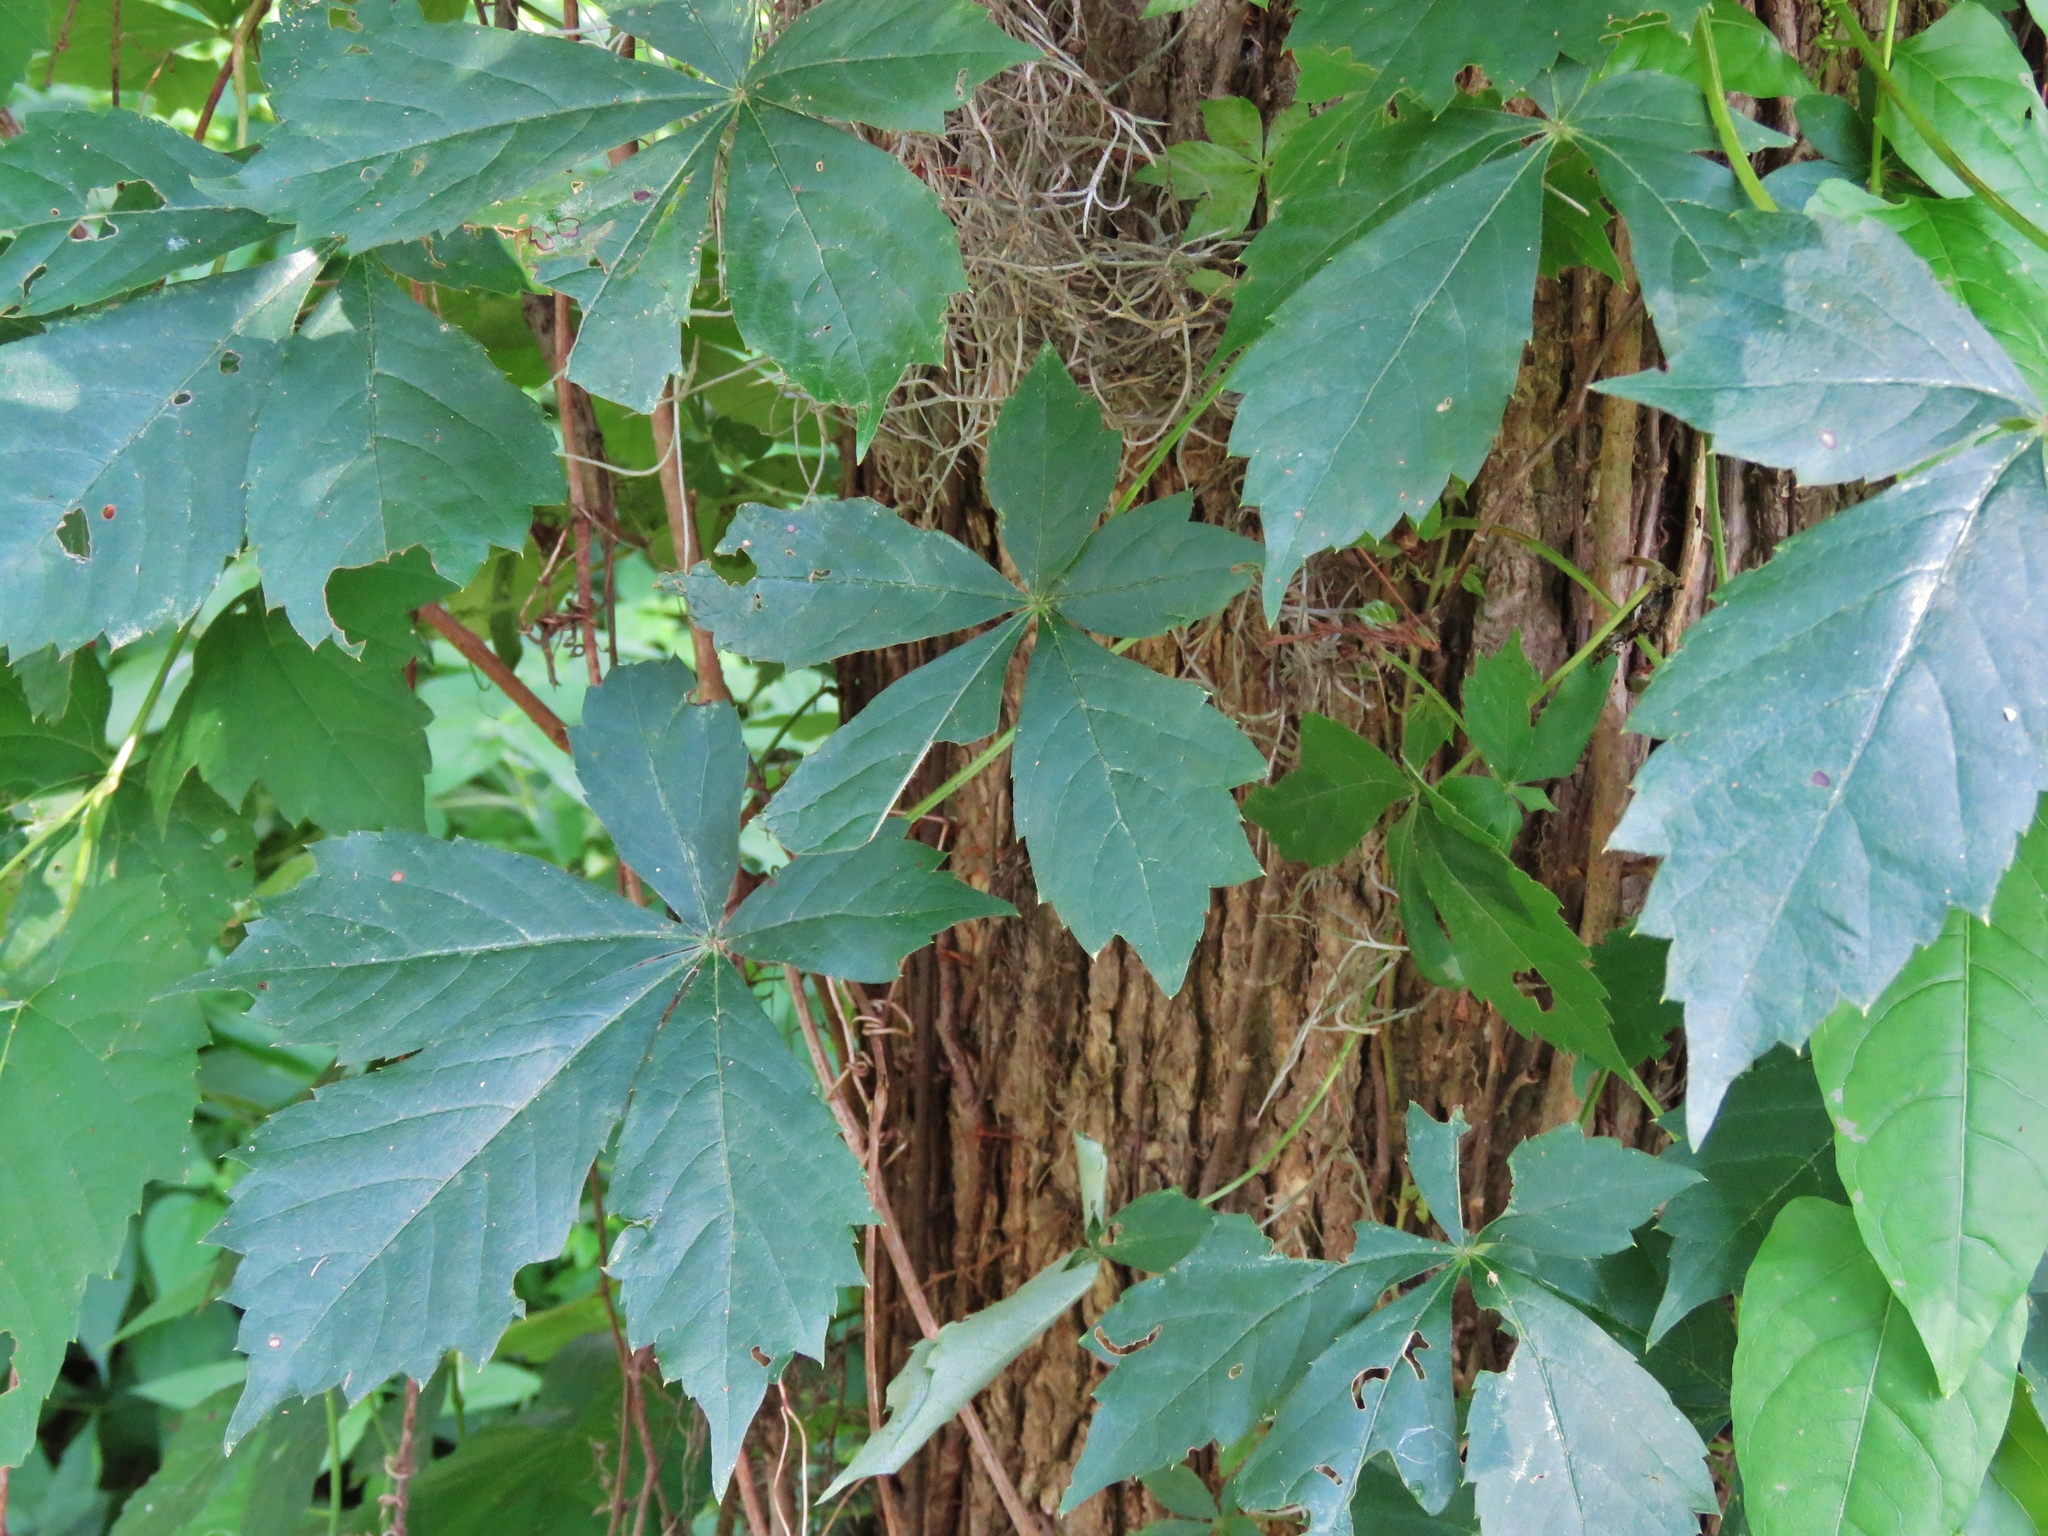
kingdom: Plantae
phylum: Tracheophyta
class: Magnoliopsida
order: Vitales
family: Vitaceae
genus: Parthenocissus
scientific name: Parthenocissus quinquefolia
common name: Virginia-creeper
